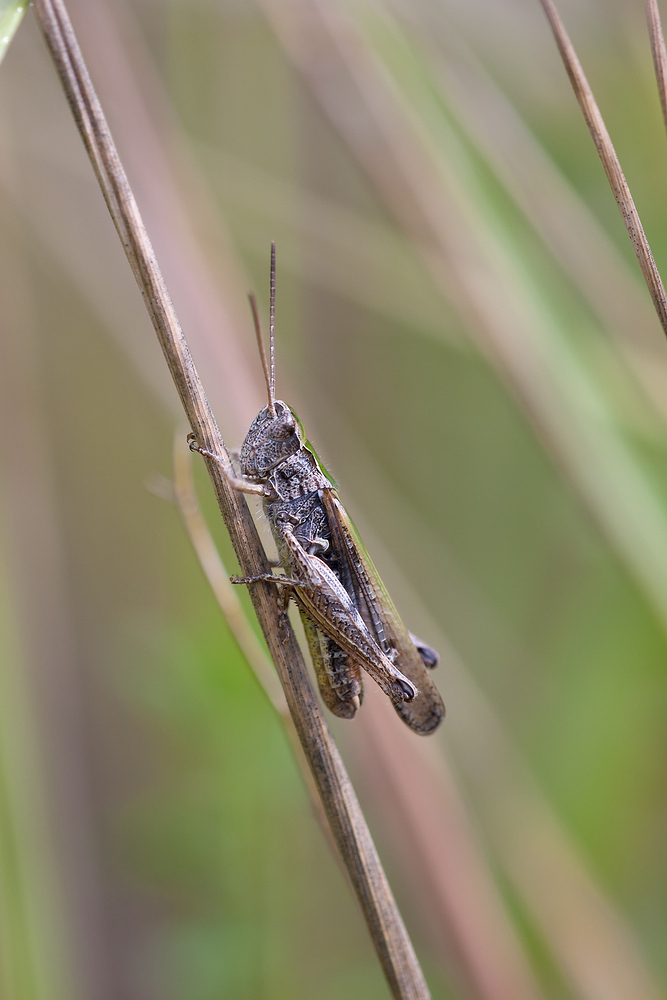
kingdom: Animalia
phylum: Arthropoda
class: Insecta
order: Orthoptera
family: Acrididae
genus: Chorthippus
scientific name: Chorthippus brunneus
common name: Field grasshopper
